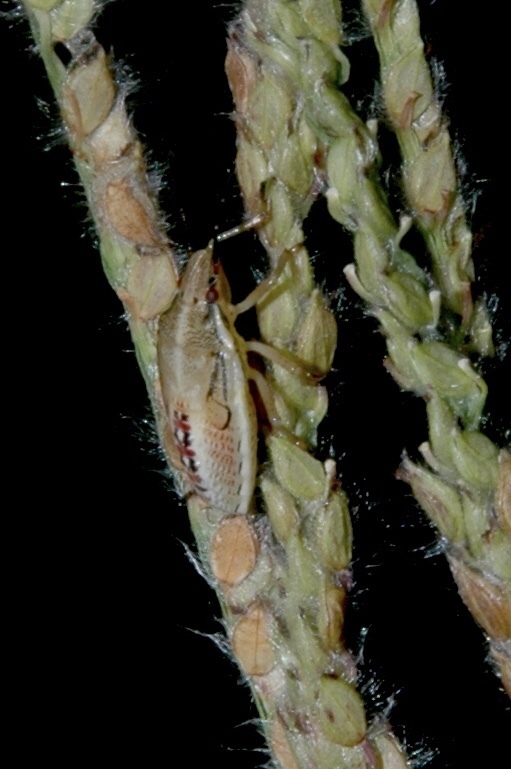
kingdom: Animalia
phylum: Arthropoda
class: Insecta
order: Hemiptera
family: Pentatomidae
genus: Oebalus
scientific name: Oebalus pugnax
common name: Rice stink bug
